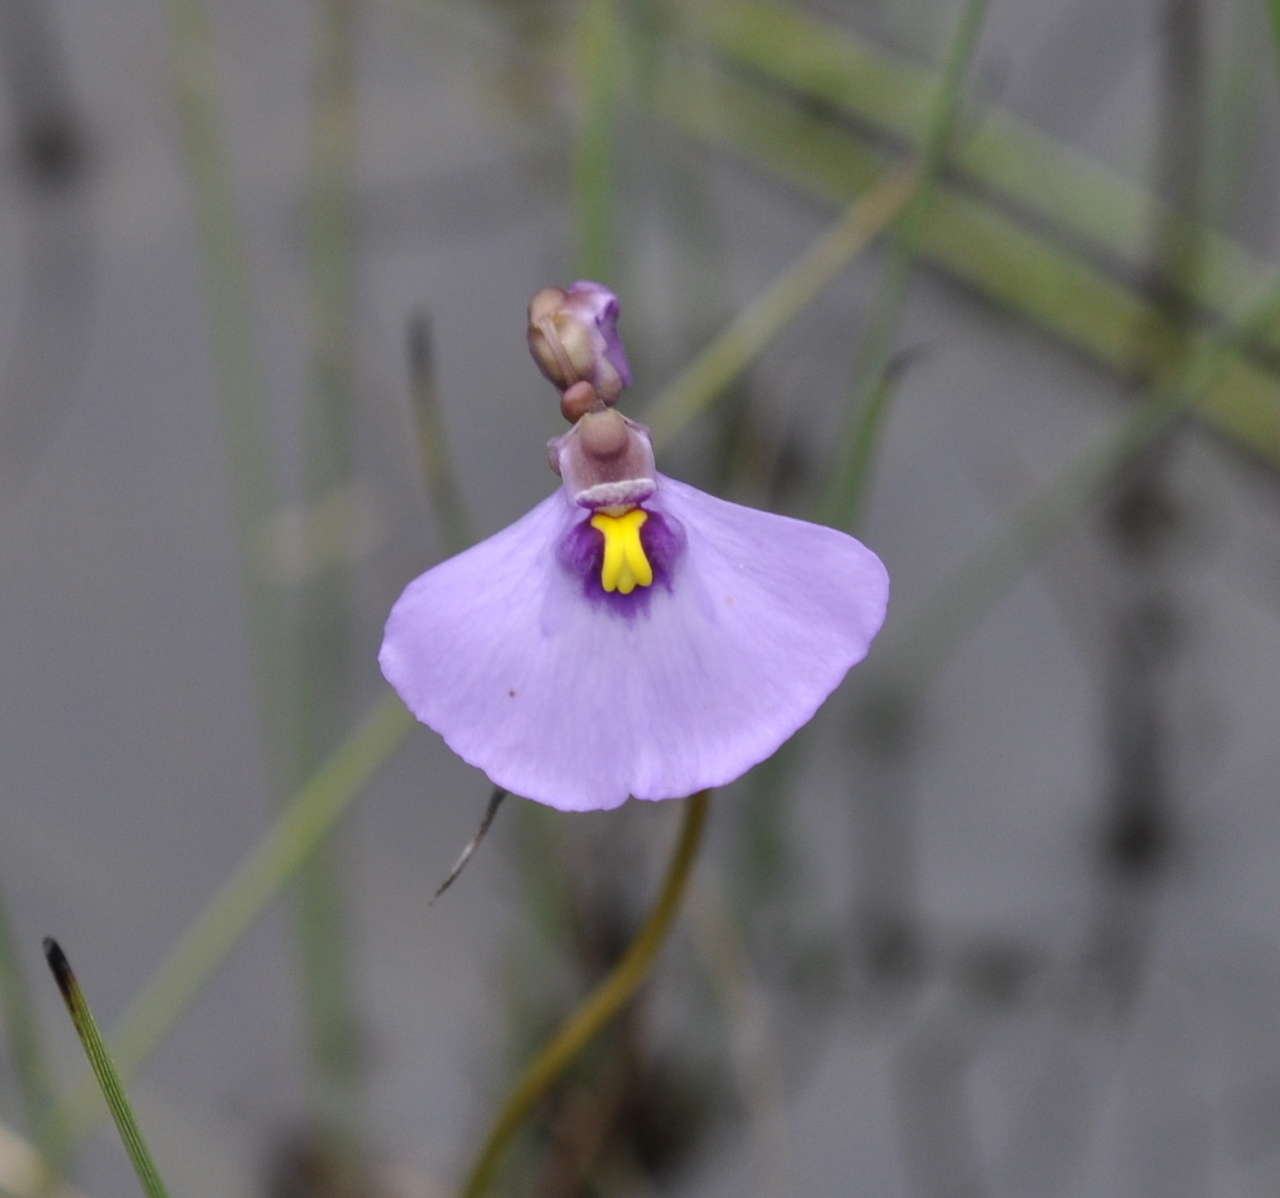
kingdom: Plantae
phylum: Tracheophyta
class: Magnoliopsida
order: Lamiales
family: Lentibulariaceae
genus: Utricularia
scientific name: Utricularia barkeri
